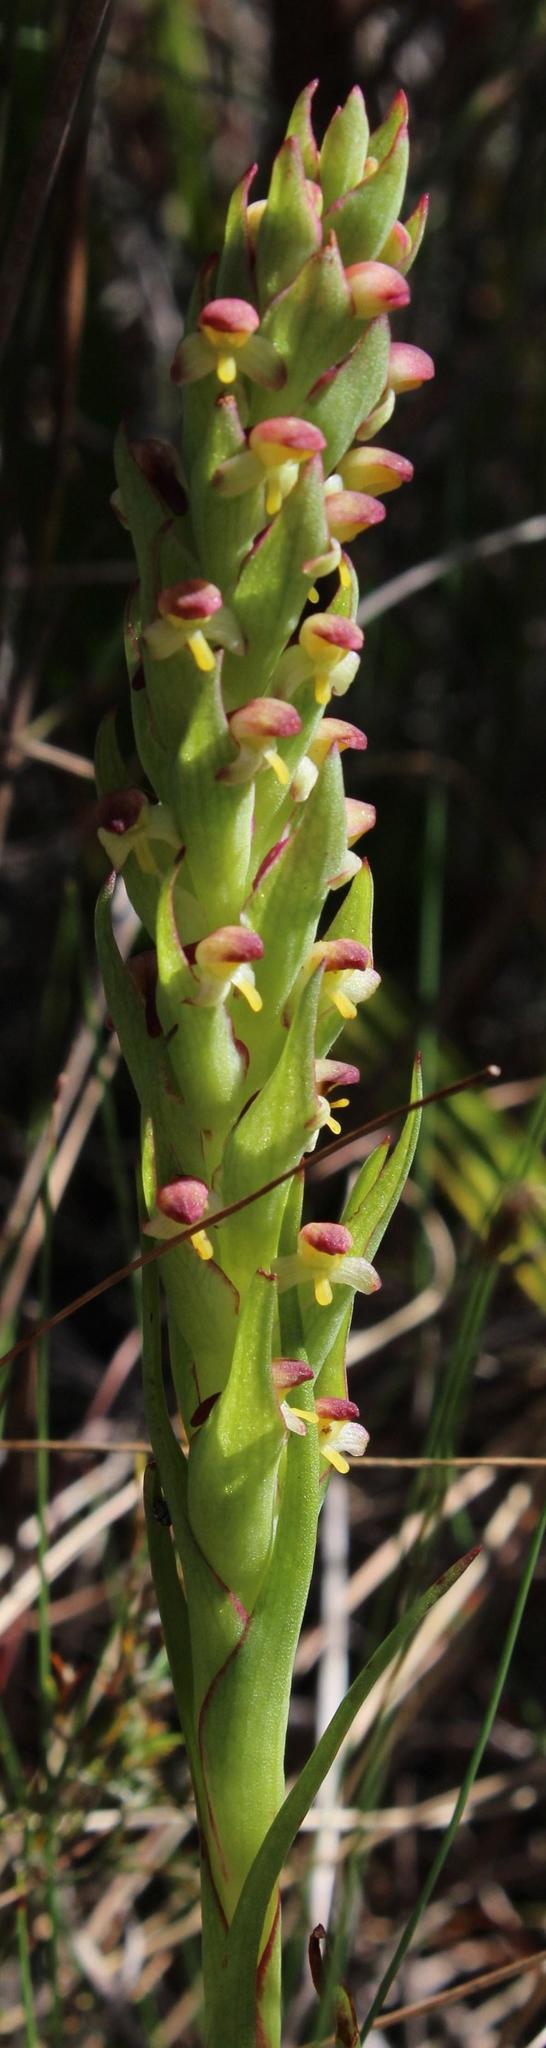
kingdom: Plantae
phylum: Tracheophyta
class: Liliopsida
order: Asparagales
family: Orchidaceae
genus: Disa
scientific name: Disa bracteata
